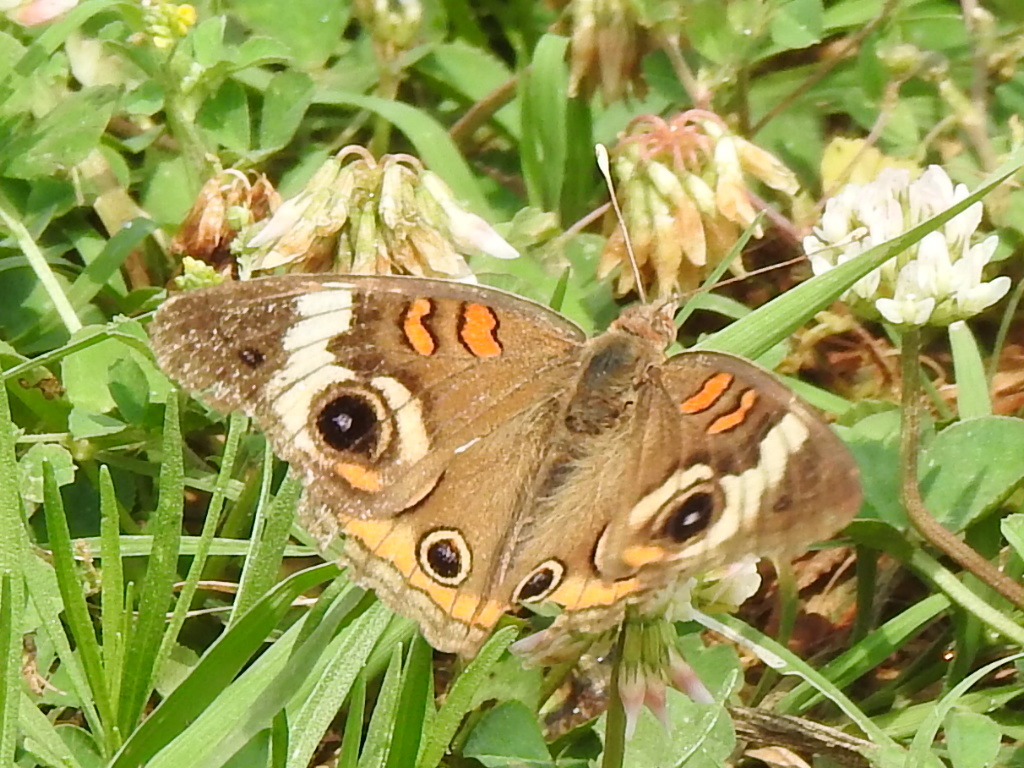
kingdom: Animalia
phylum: Arthropoda
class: Insecta
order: Lepidoptera
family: Nymphalidae
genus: Junonia
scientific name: Junonia coenia
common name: Common buckeye
